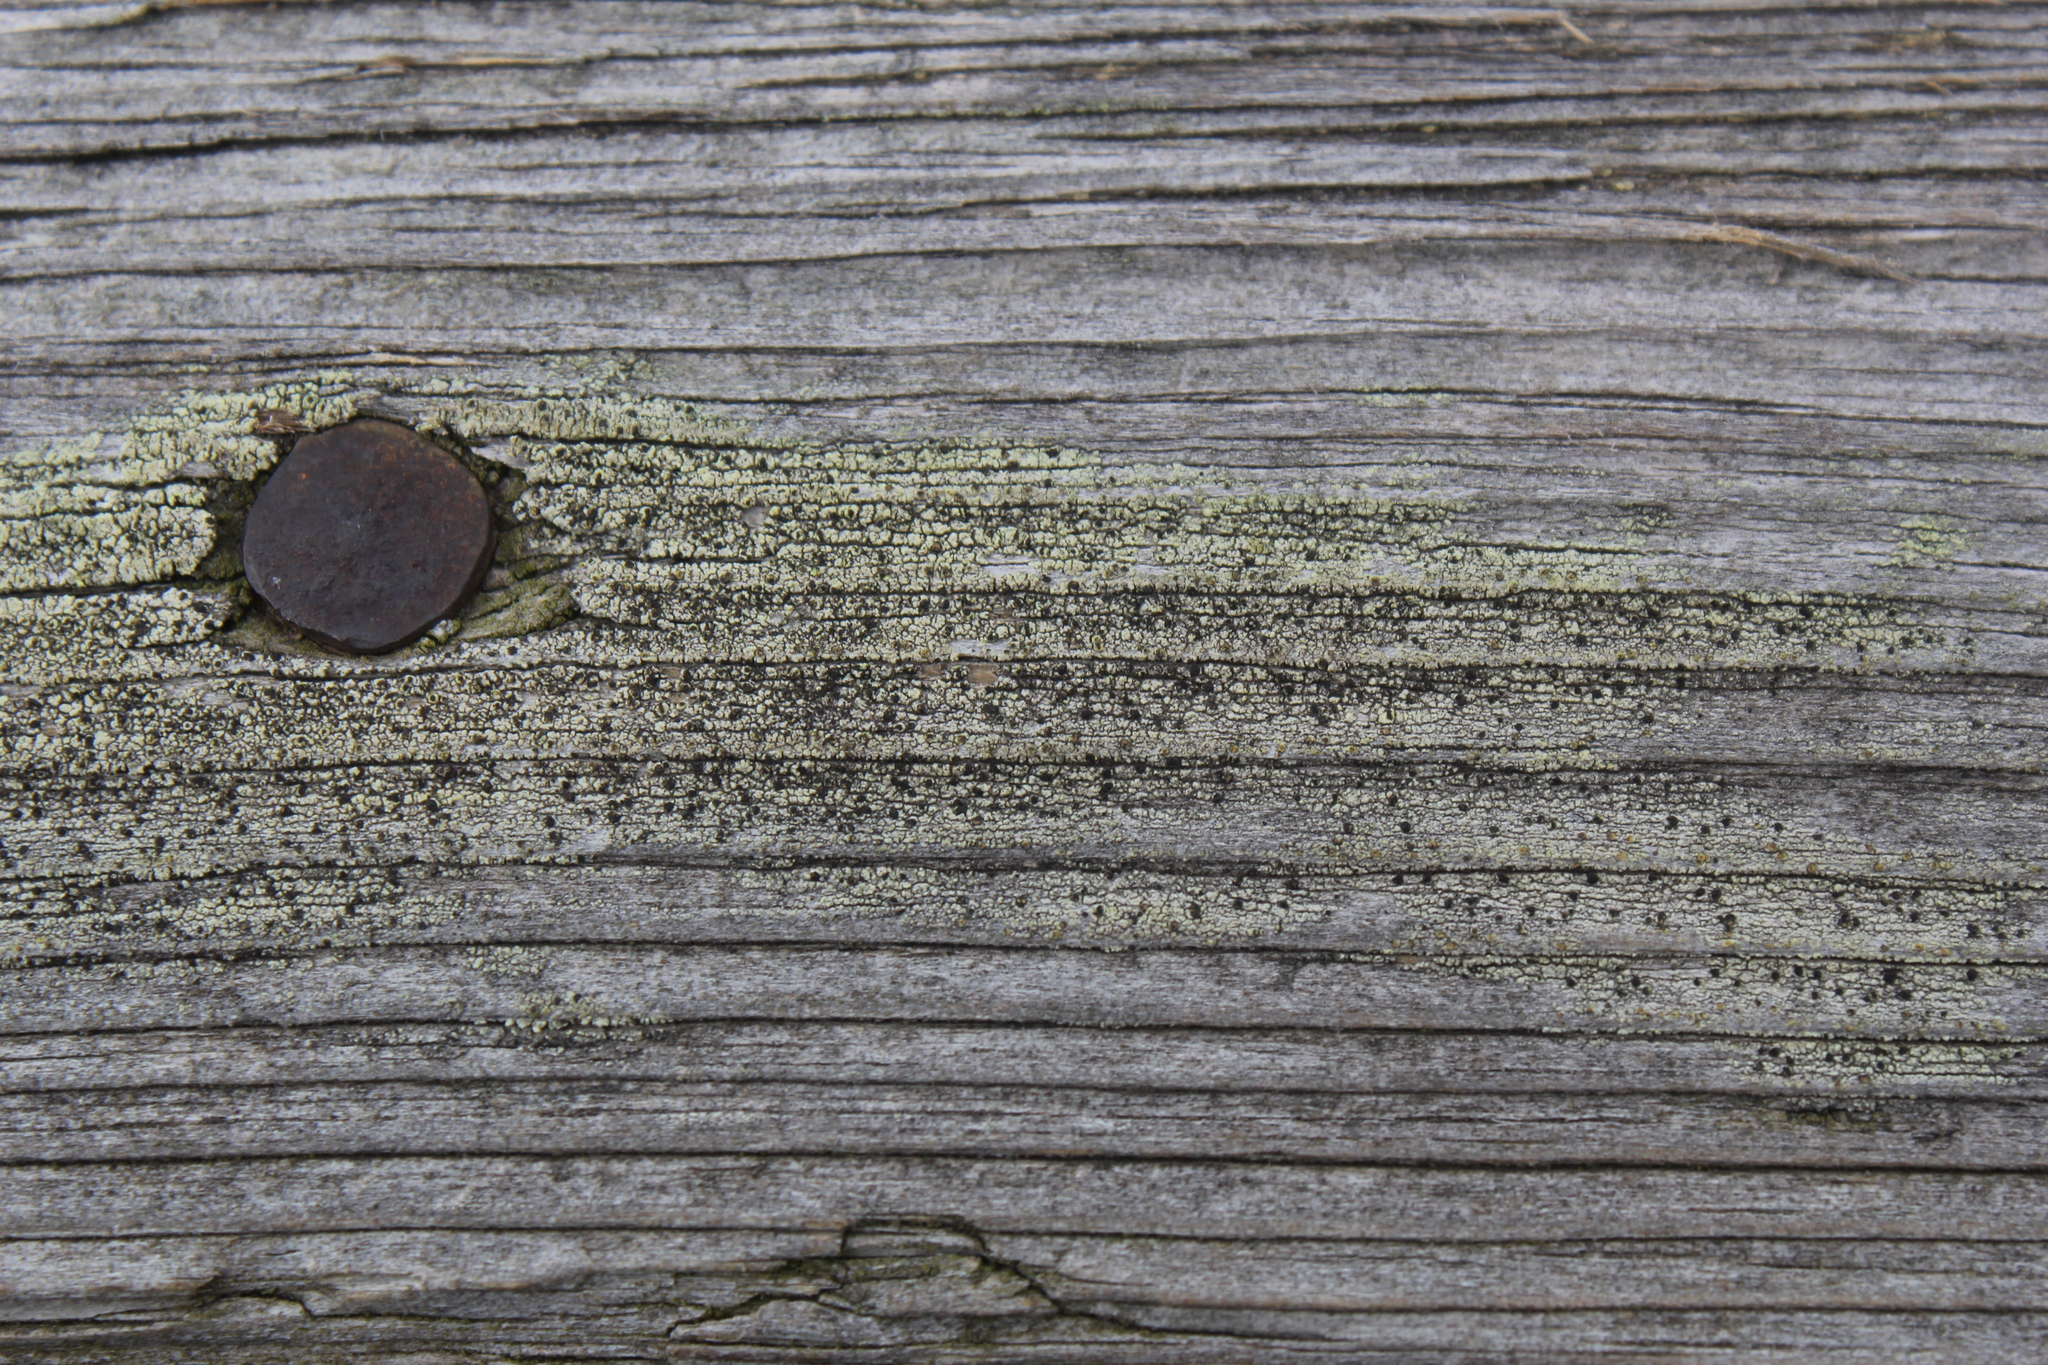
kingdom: Fungi
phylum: Ascomycota
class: Lecanoromycetes
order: Caliciales
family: Caliciaceae
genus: Calicium
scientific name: Calicium tigillare
